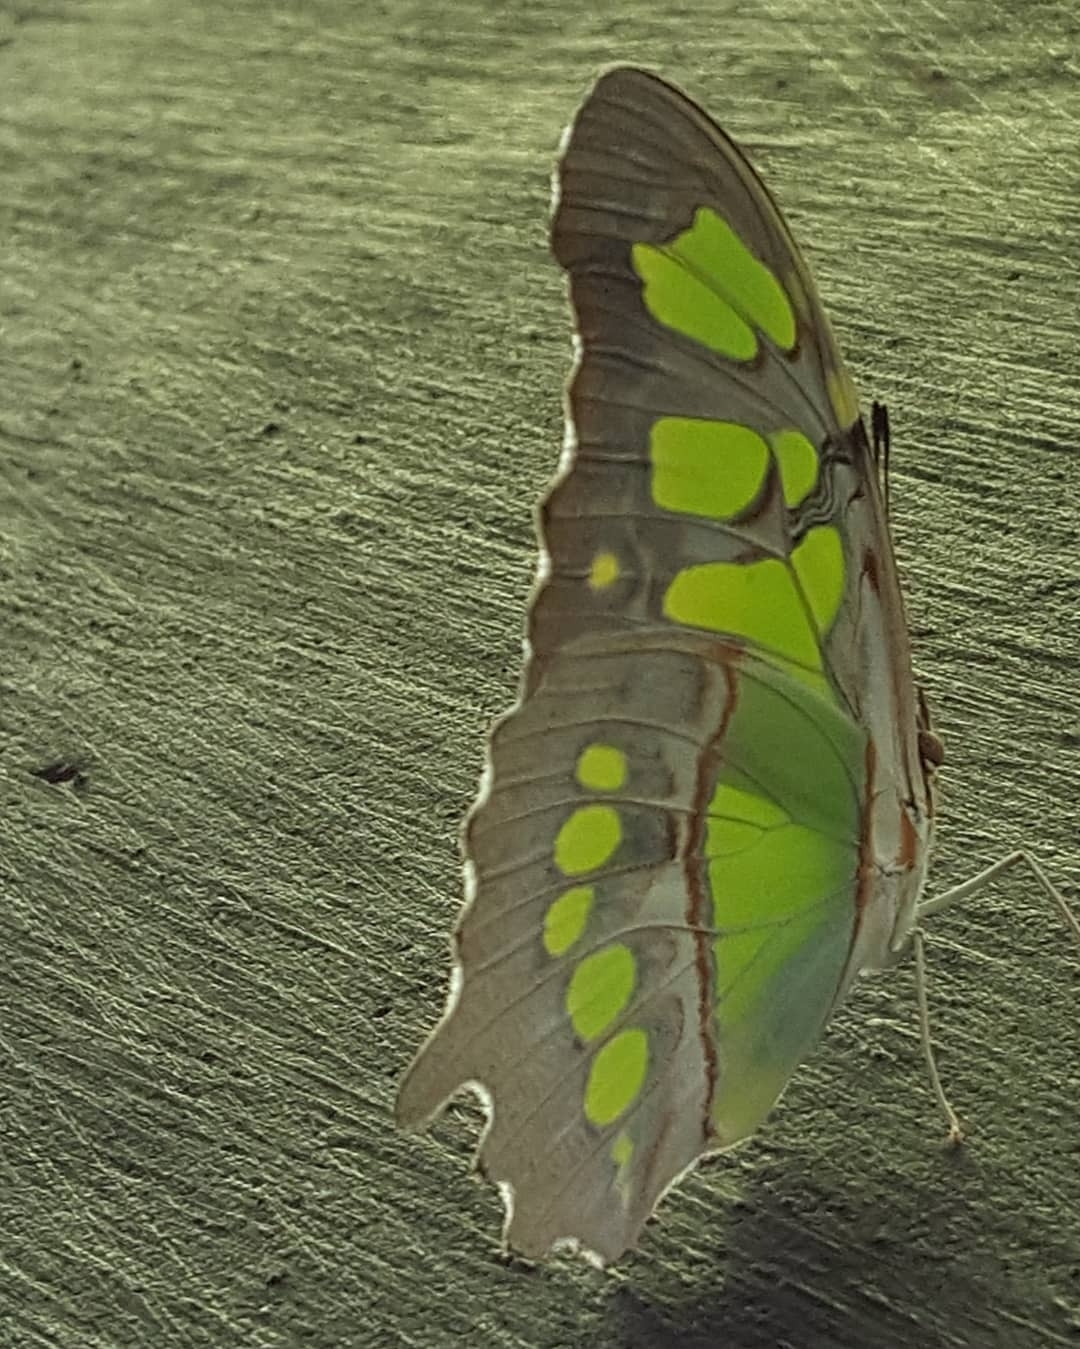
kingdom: Animalia
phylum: Arthropoda
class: Insecta
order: Lepidoptera
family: Nymphalidae
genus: Siproeta
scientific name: Siproeta stelenes
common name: Malachite
